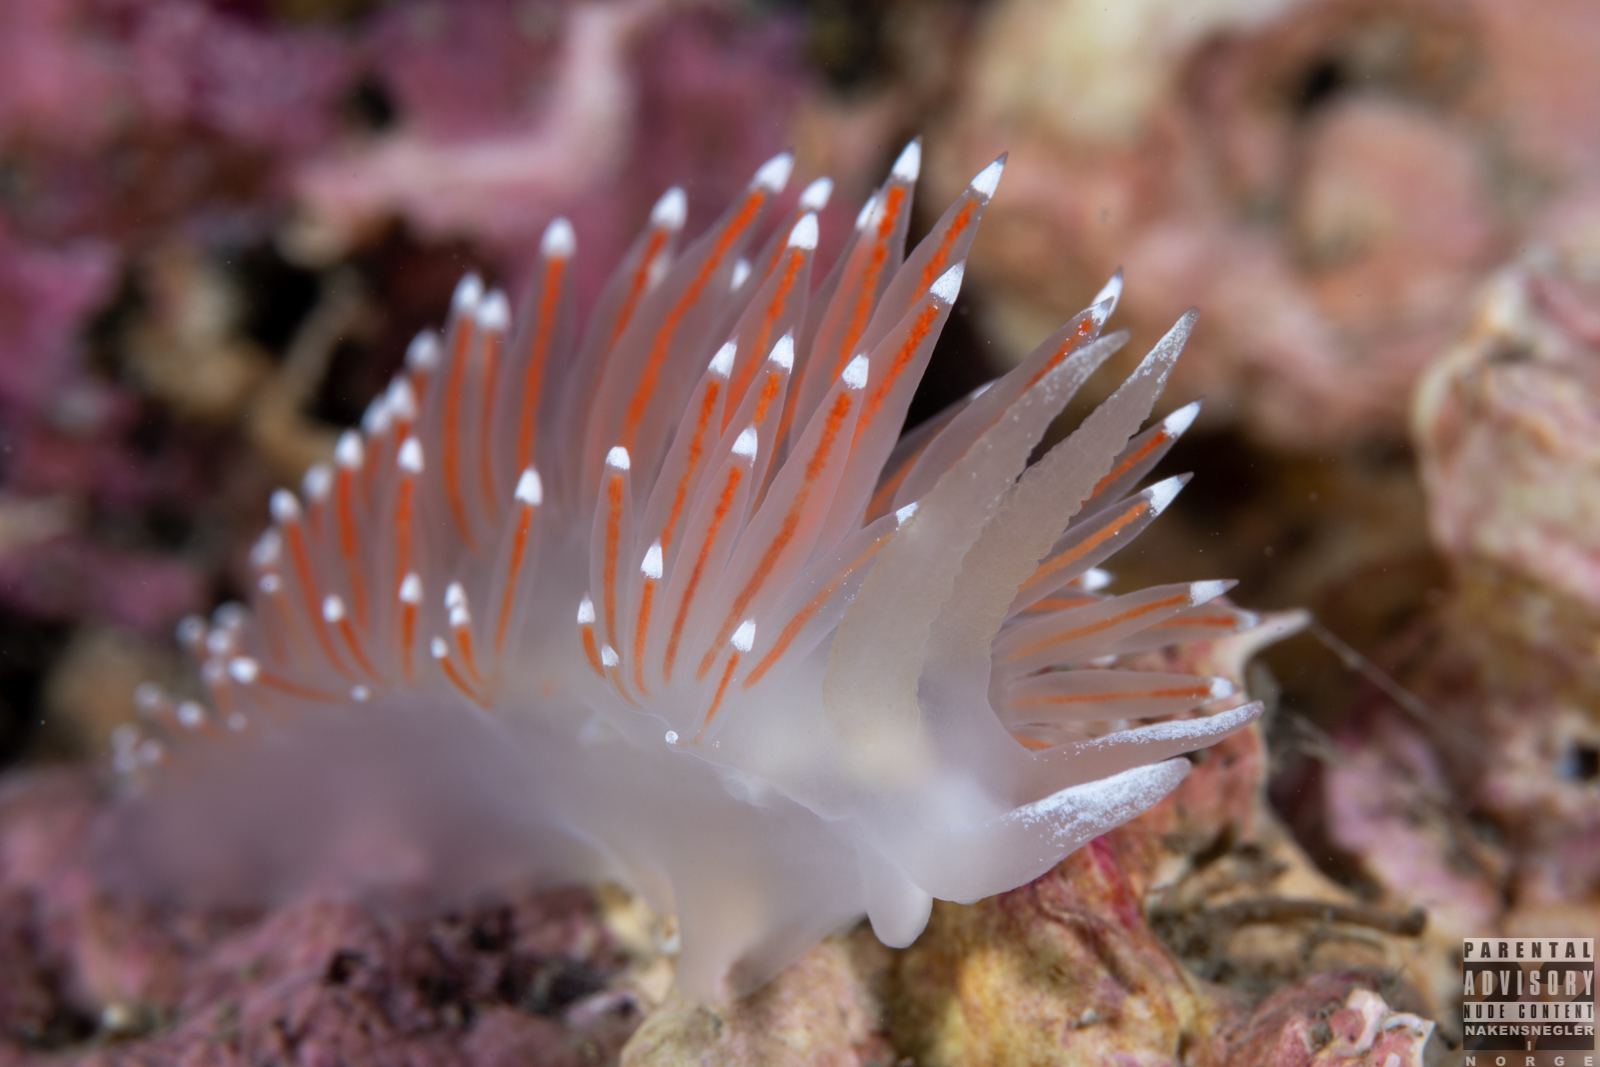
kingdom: Animalia
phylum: Mollusca
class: Gastropoda
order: Nudibranchia
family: Coryphellidae
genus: Coryphella
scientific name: Coryphella nobilis
